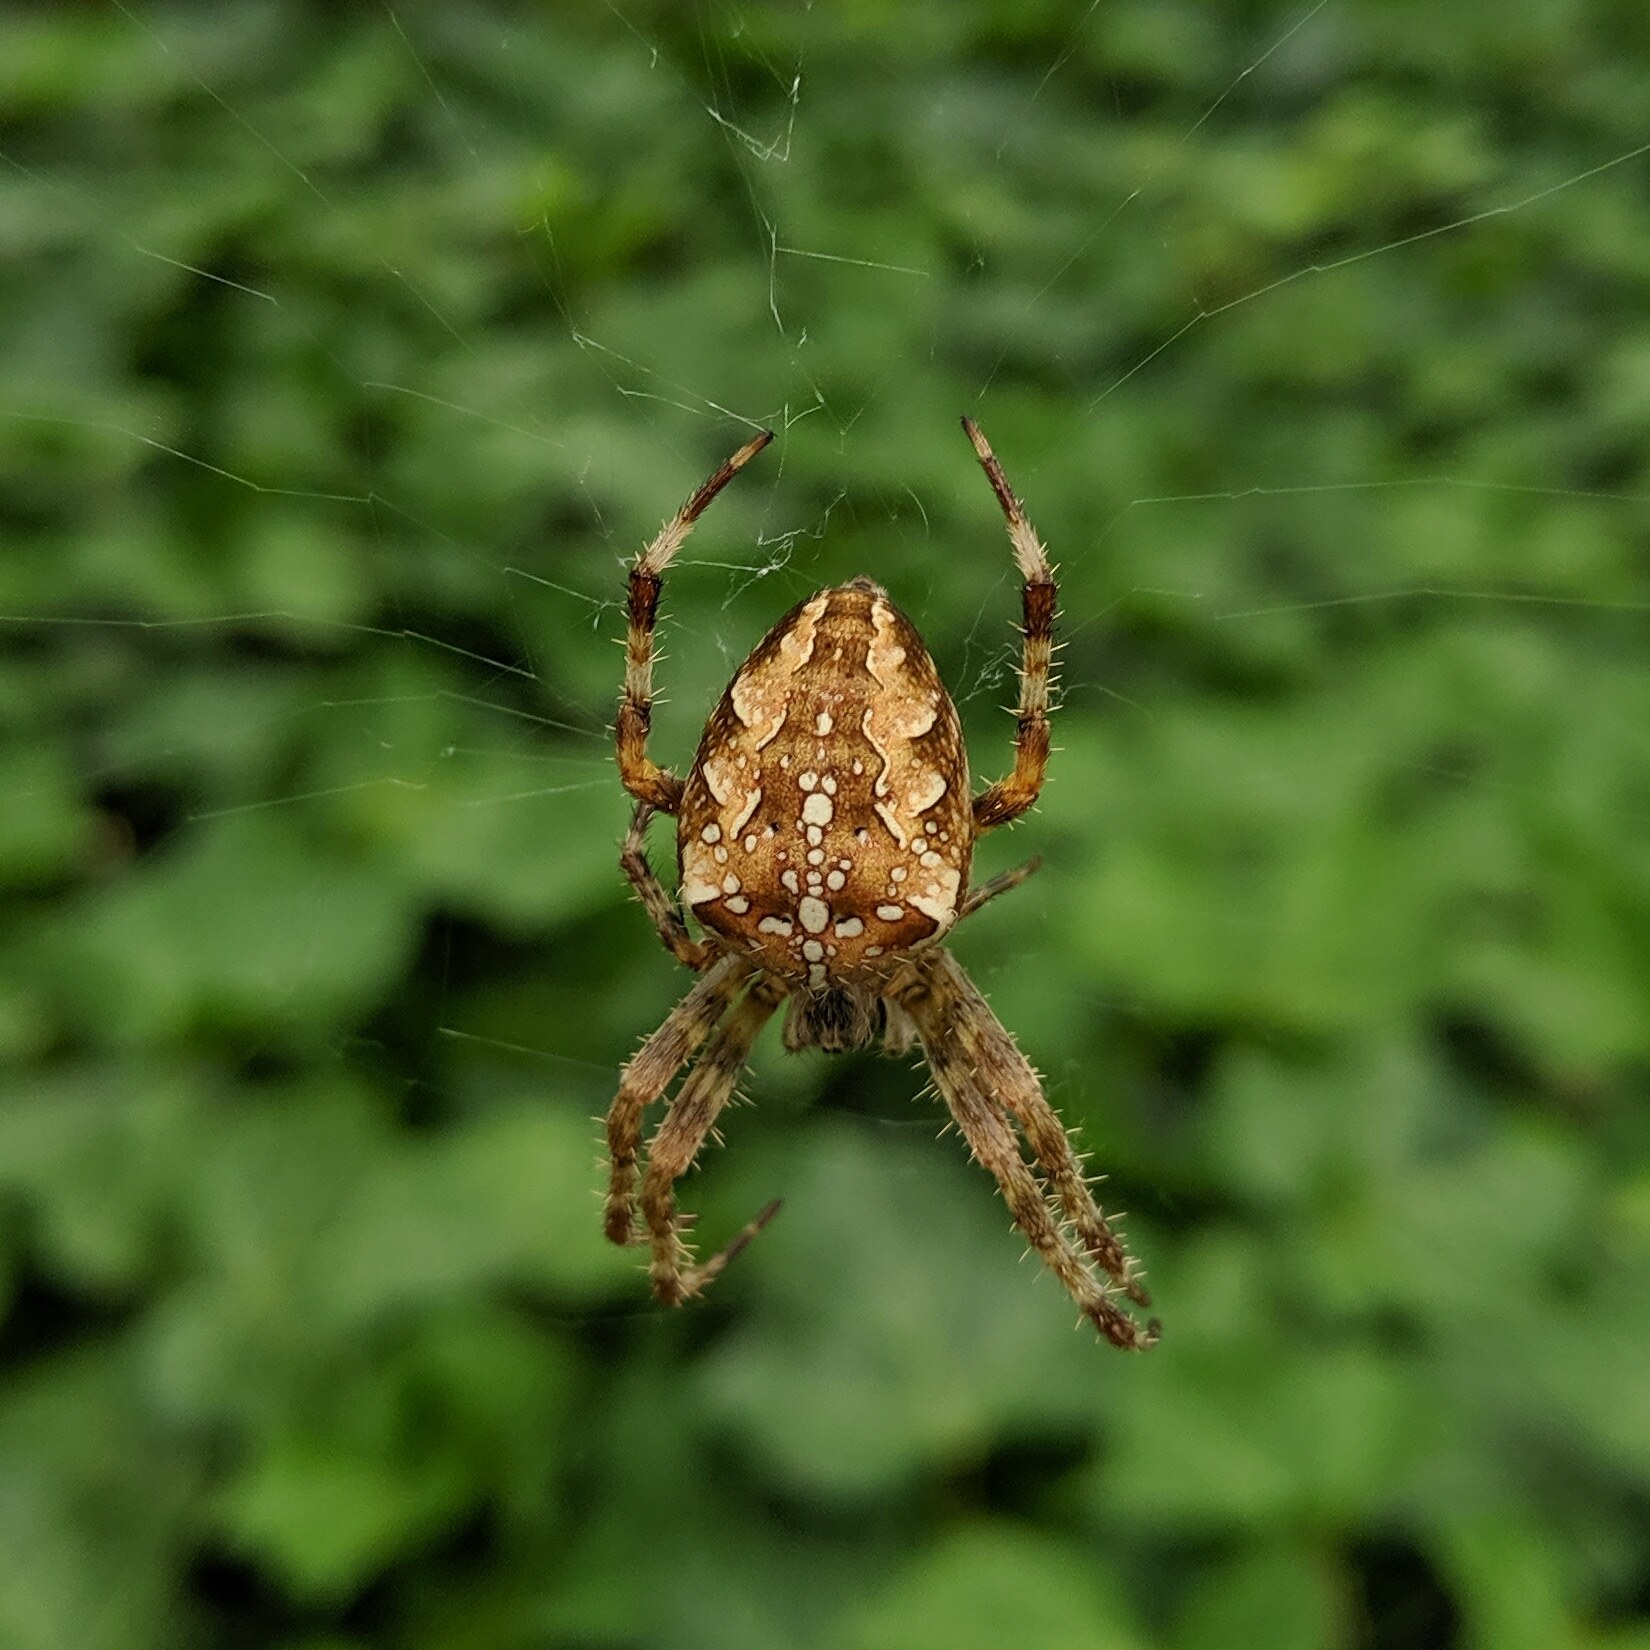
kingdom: Animalia
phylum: Arthropoda
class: Arachnida
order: Araneae
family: Araneidae
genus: Araneus
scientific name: Araneus diadematus
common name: Cross orbweaver
